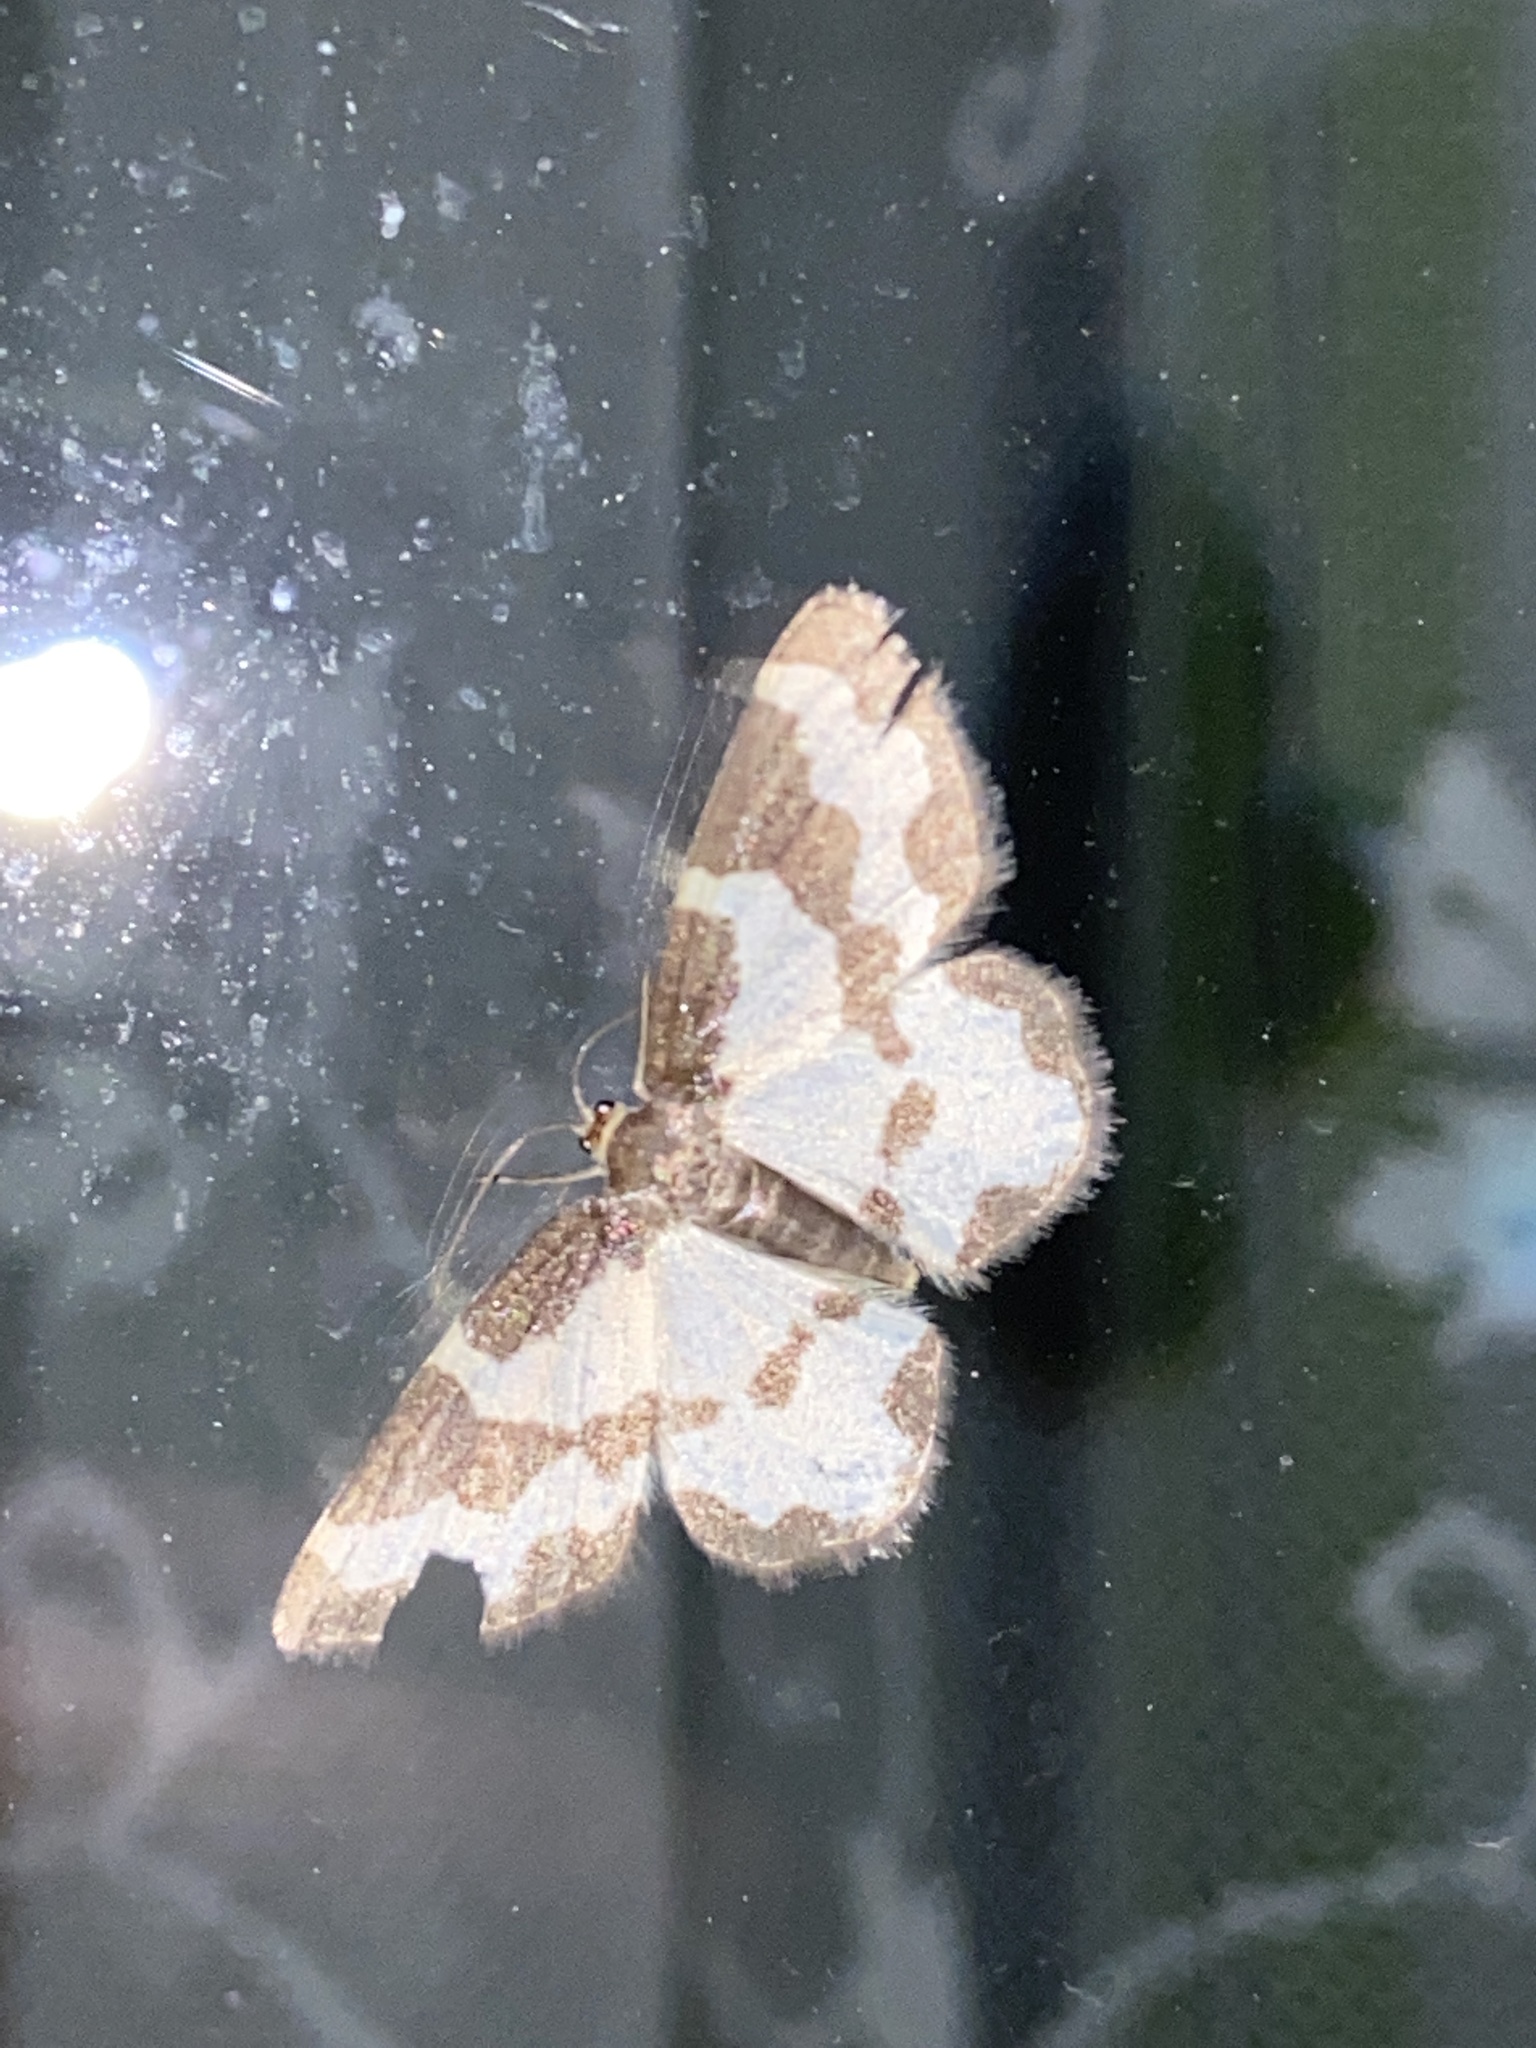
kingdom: Animalia
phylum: Arthropoda
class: Insecta
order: Lepidoptera
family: Geometridae
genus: Lomaspilis
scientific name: Lomaspilis marginata
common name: Clouded border
